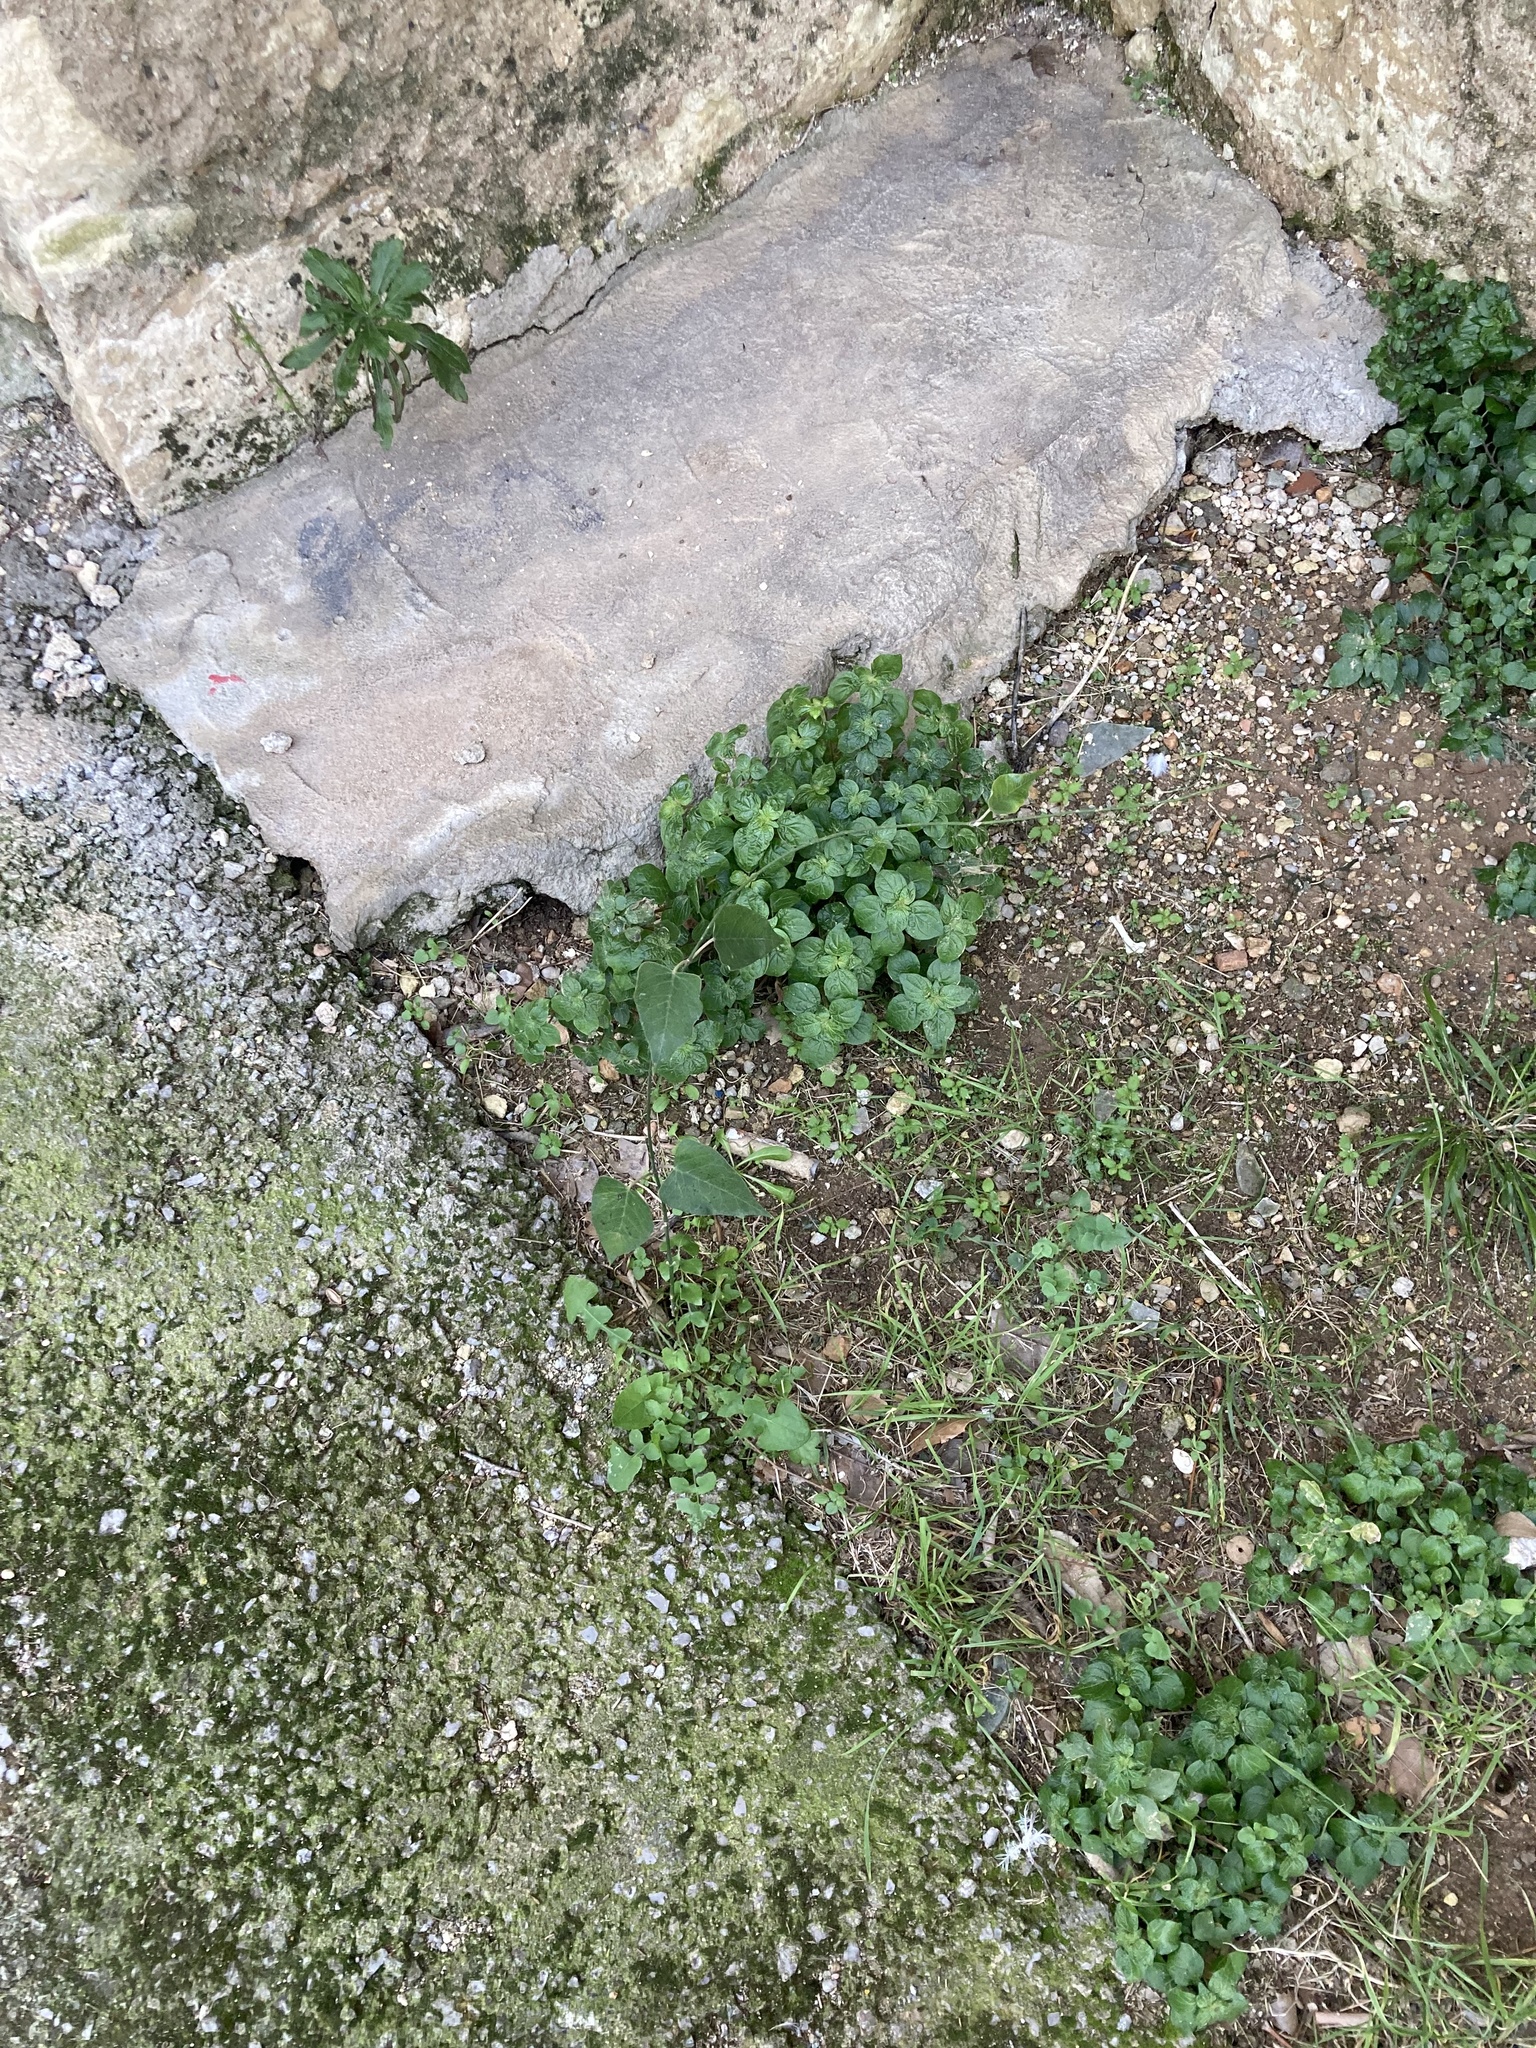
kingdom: Plantae
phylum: Tracheophyta
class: Magnoliopsida
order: Gentianales
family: Apocynaceae
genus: Araujia
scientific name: Araujia sericifera
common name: White bladderflower
